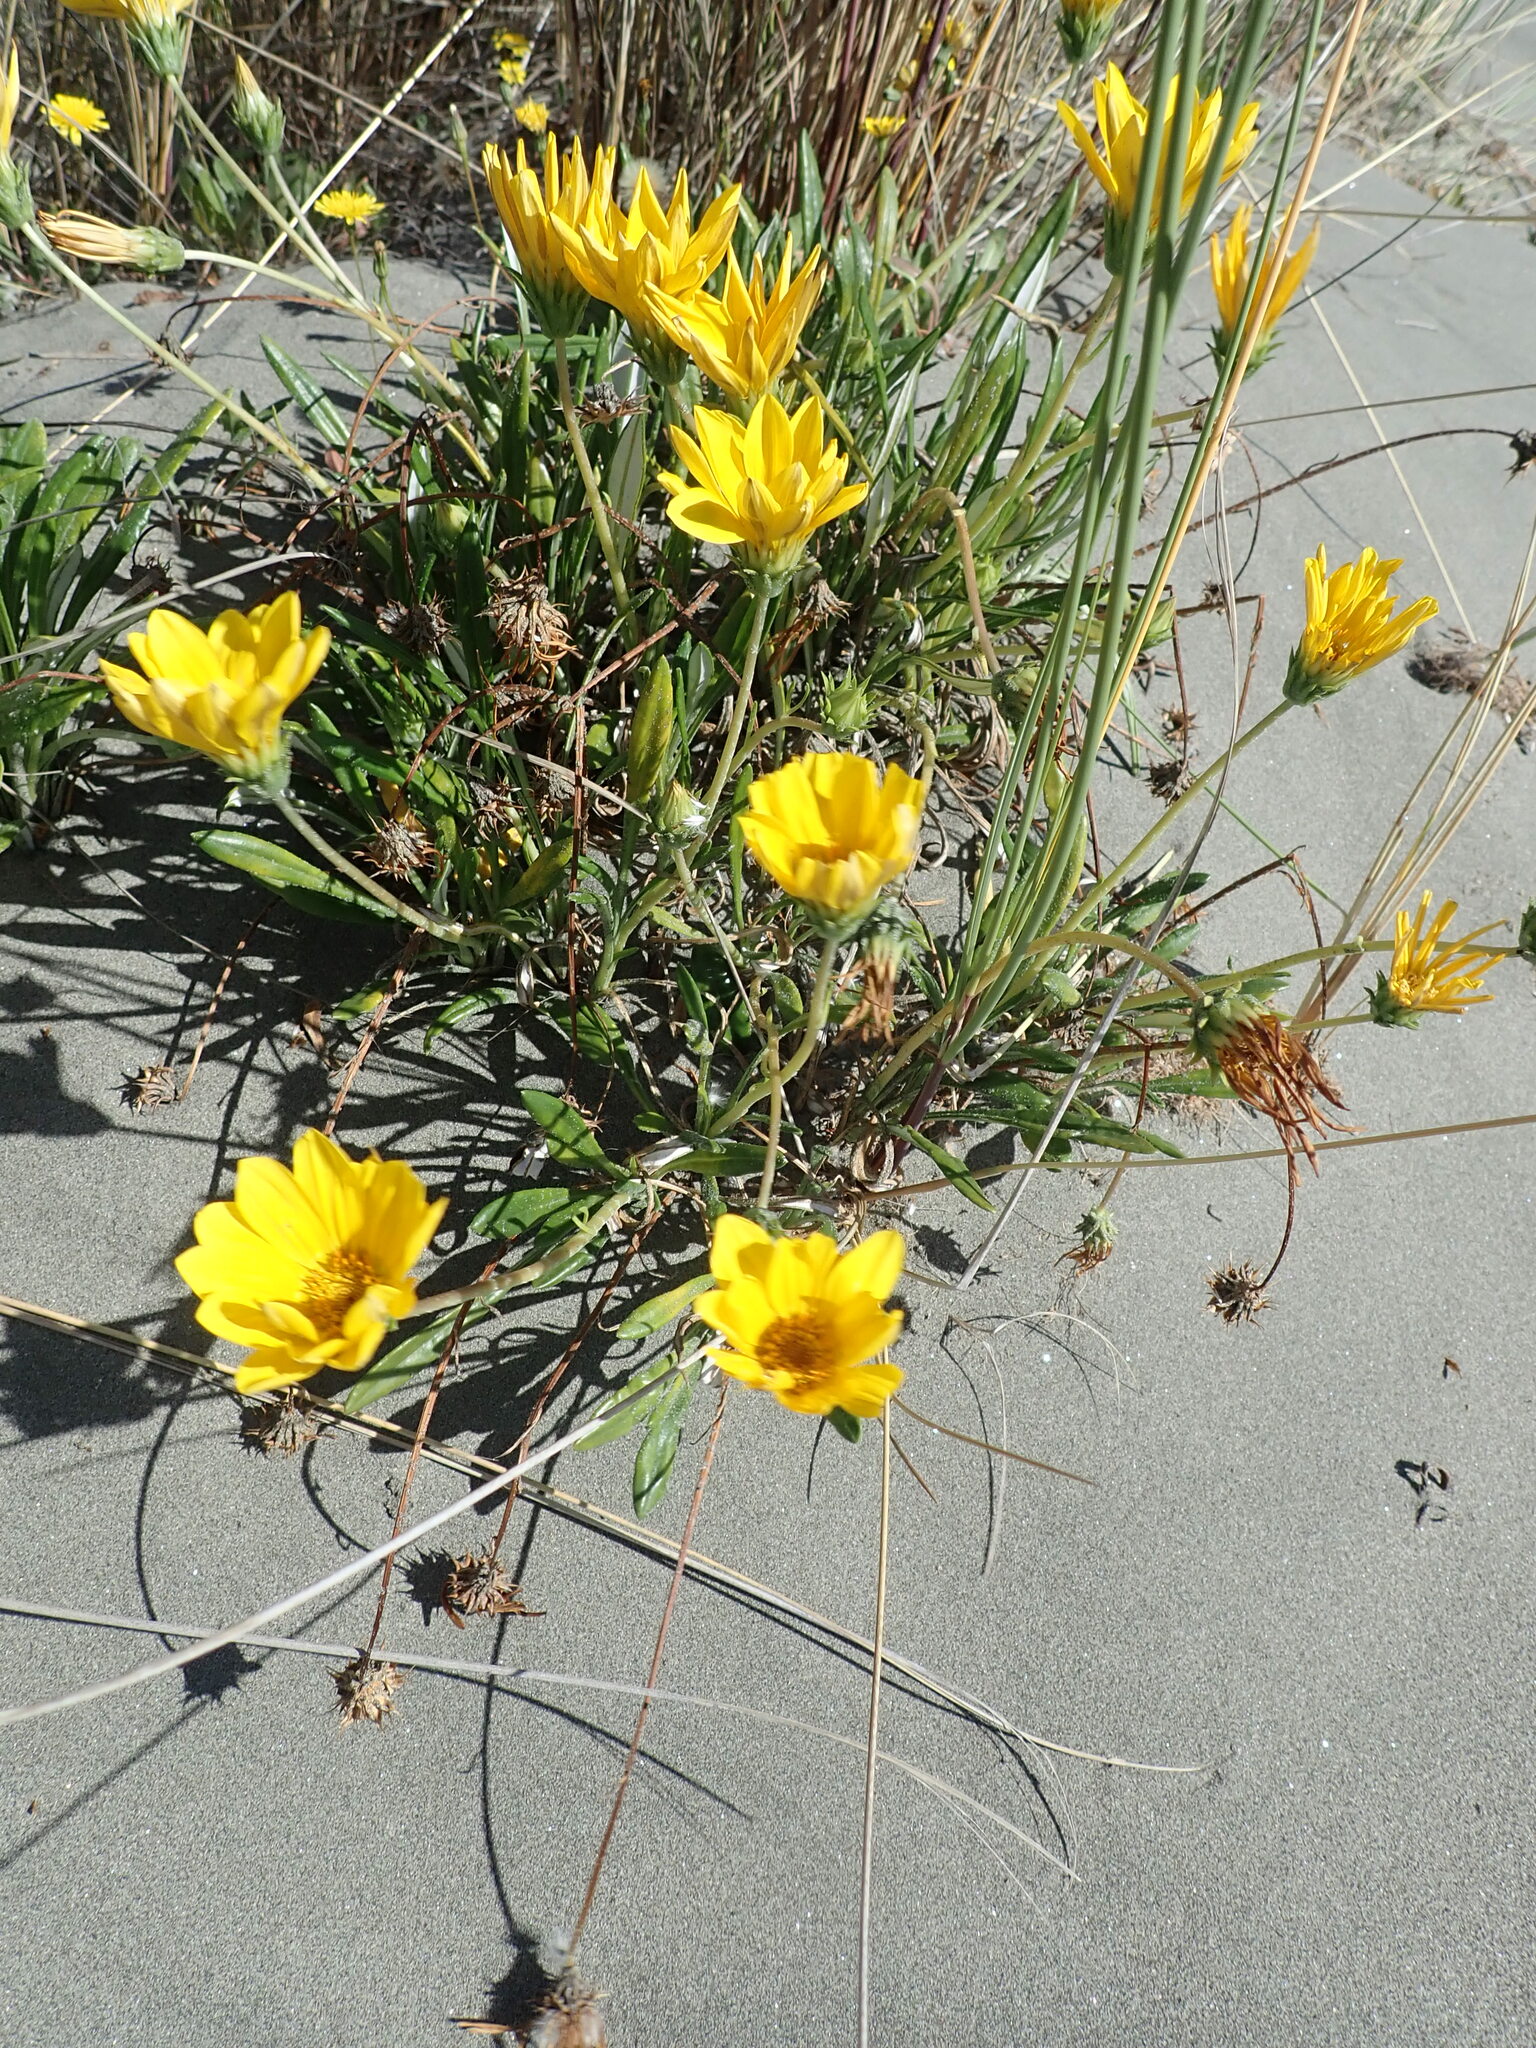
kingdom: Plantae
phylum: Tracheophyta
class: Magnoliopsida
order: Asterales
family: Asteraceae
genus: Gazania
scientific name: Gazania splendens
